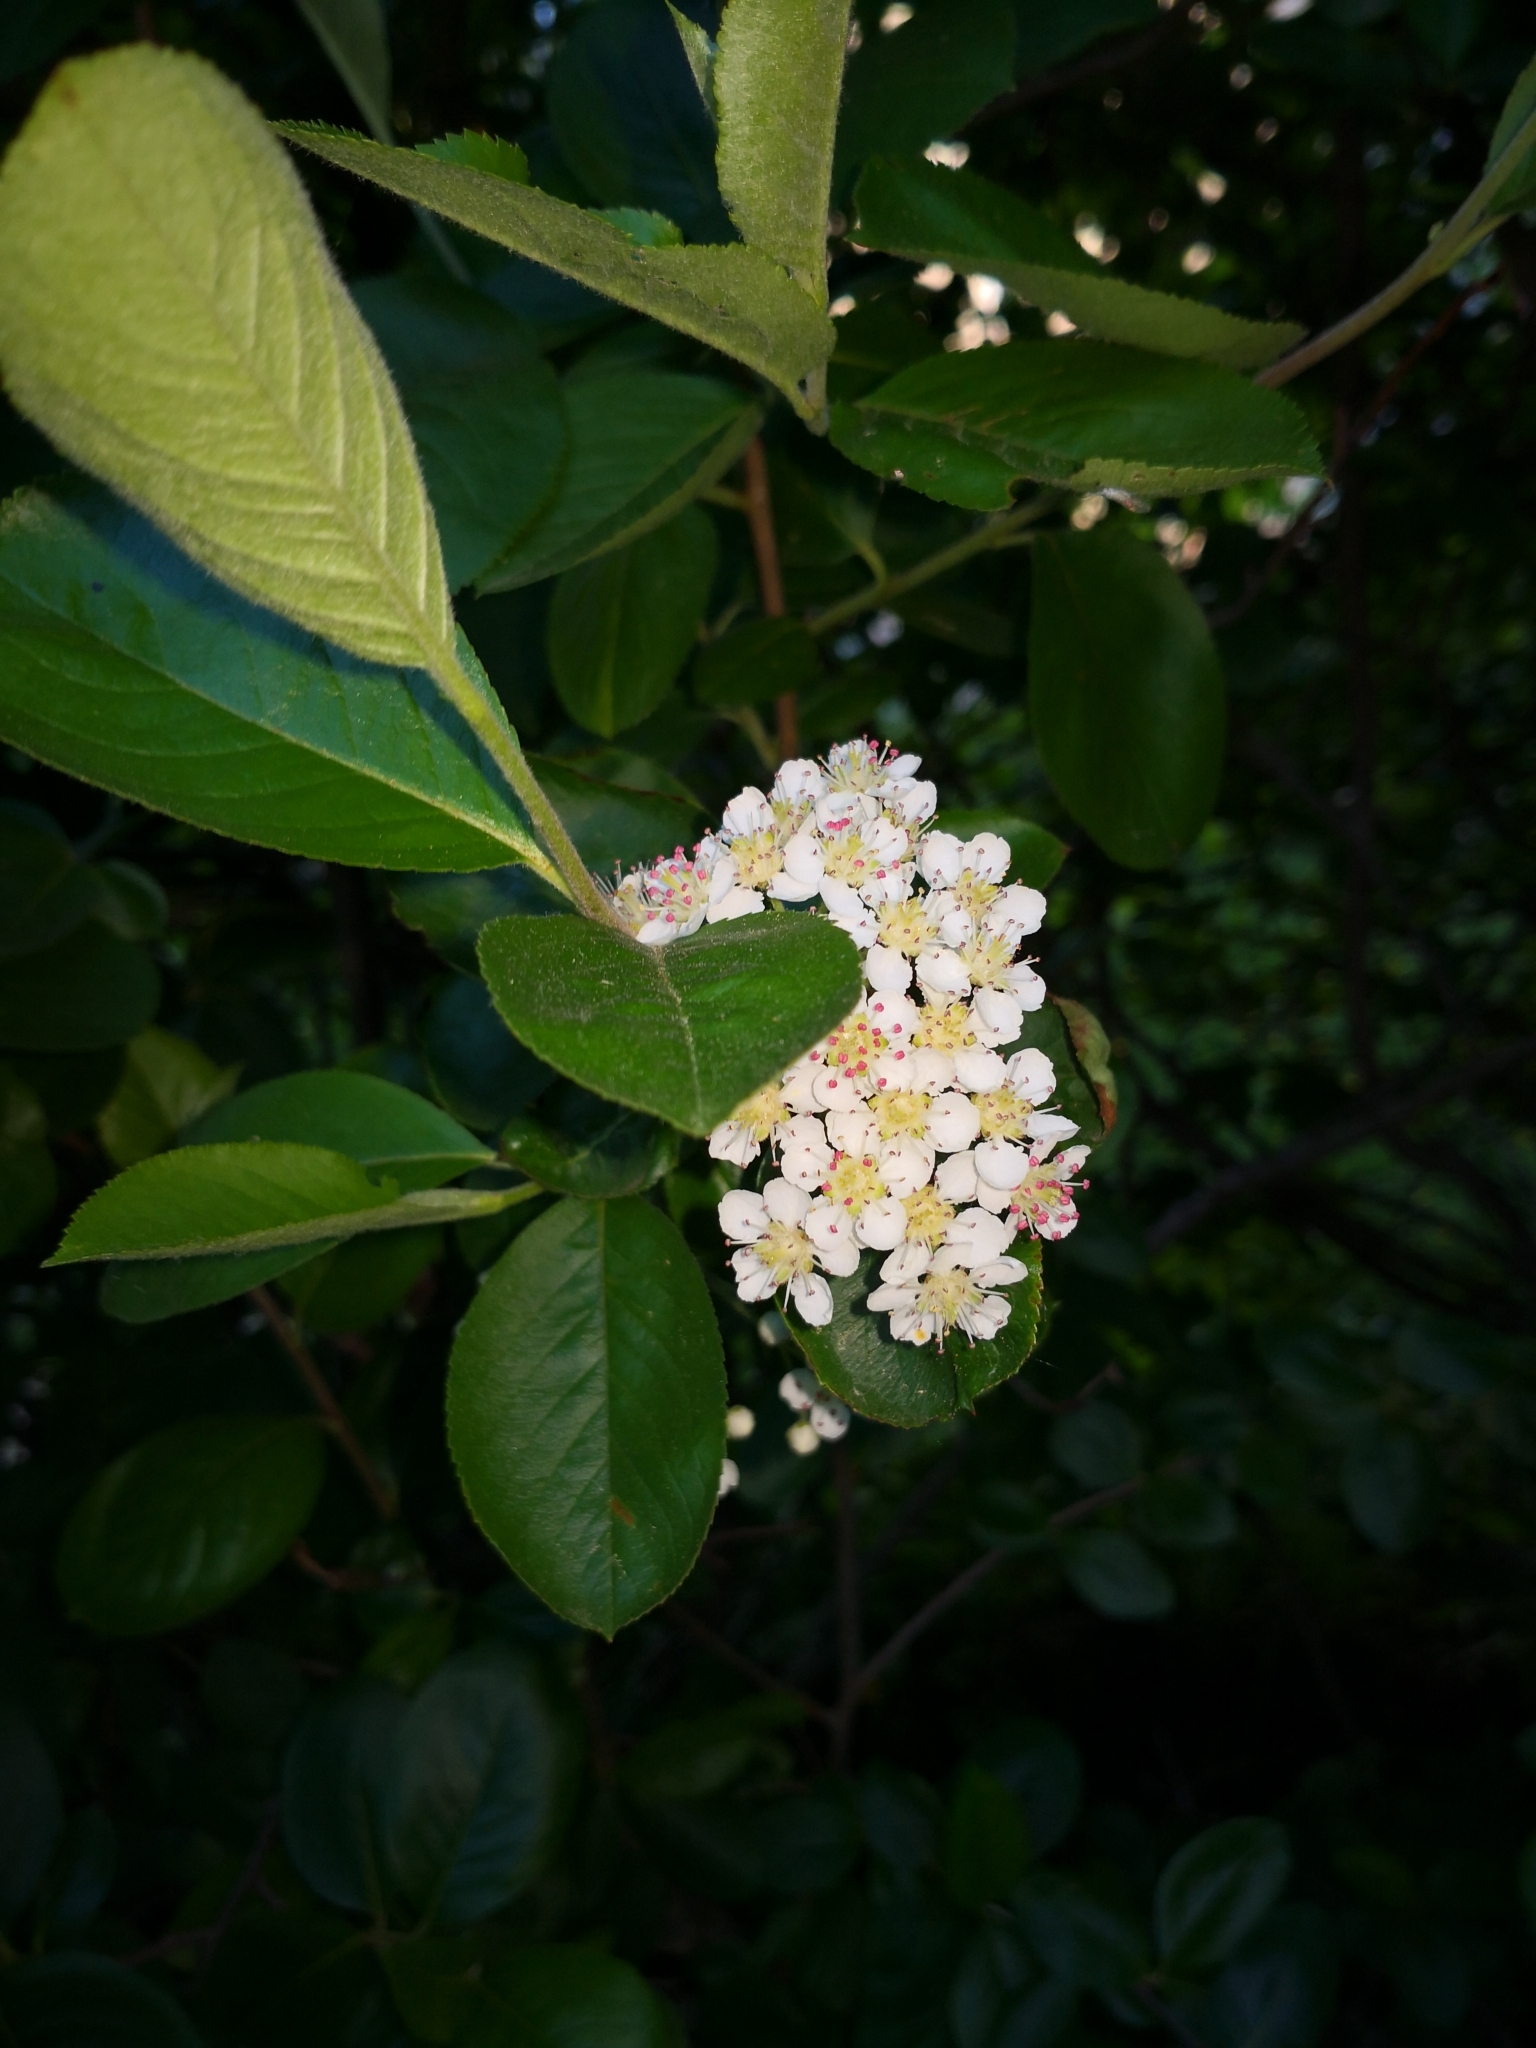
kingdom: Plantae
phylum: Tracheophyta
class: Magnoliopsida
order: Rosales
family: Rosaceae
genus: Sorbaronia
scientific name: Sorbaronia arsenii
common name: Arsène's mountain-ash
